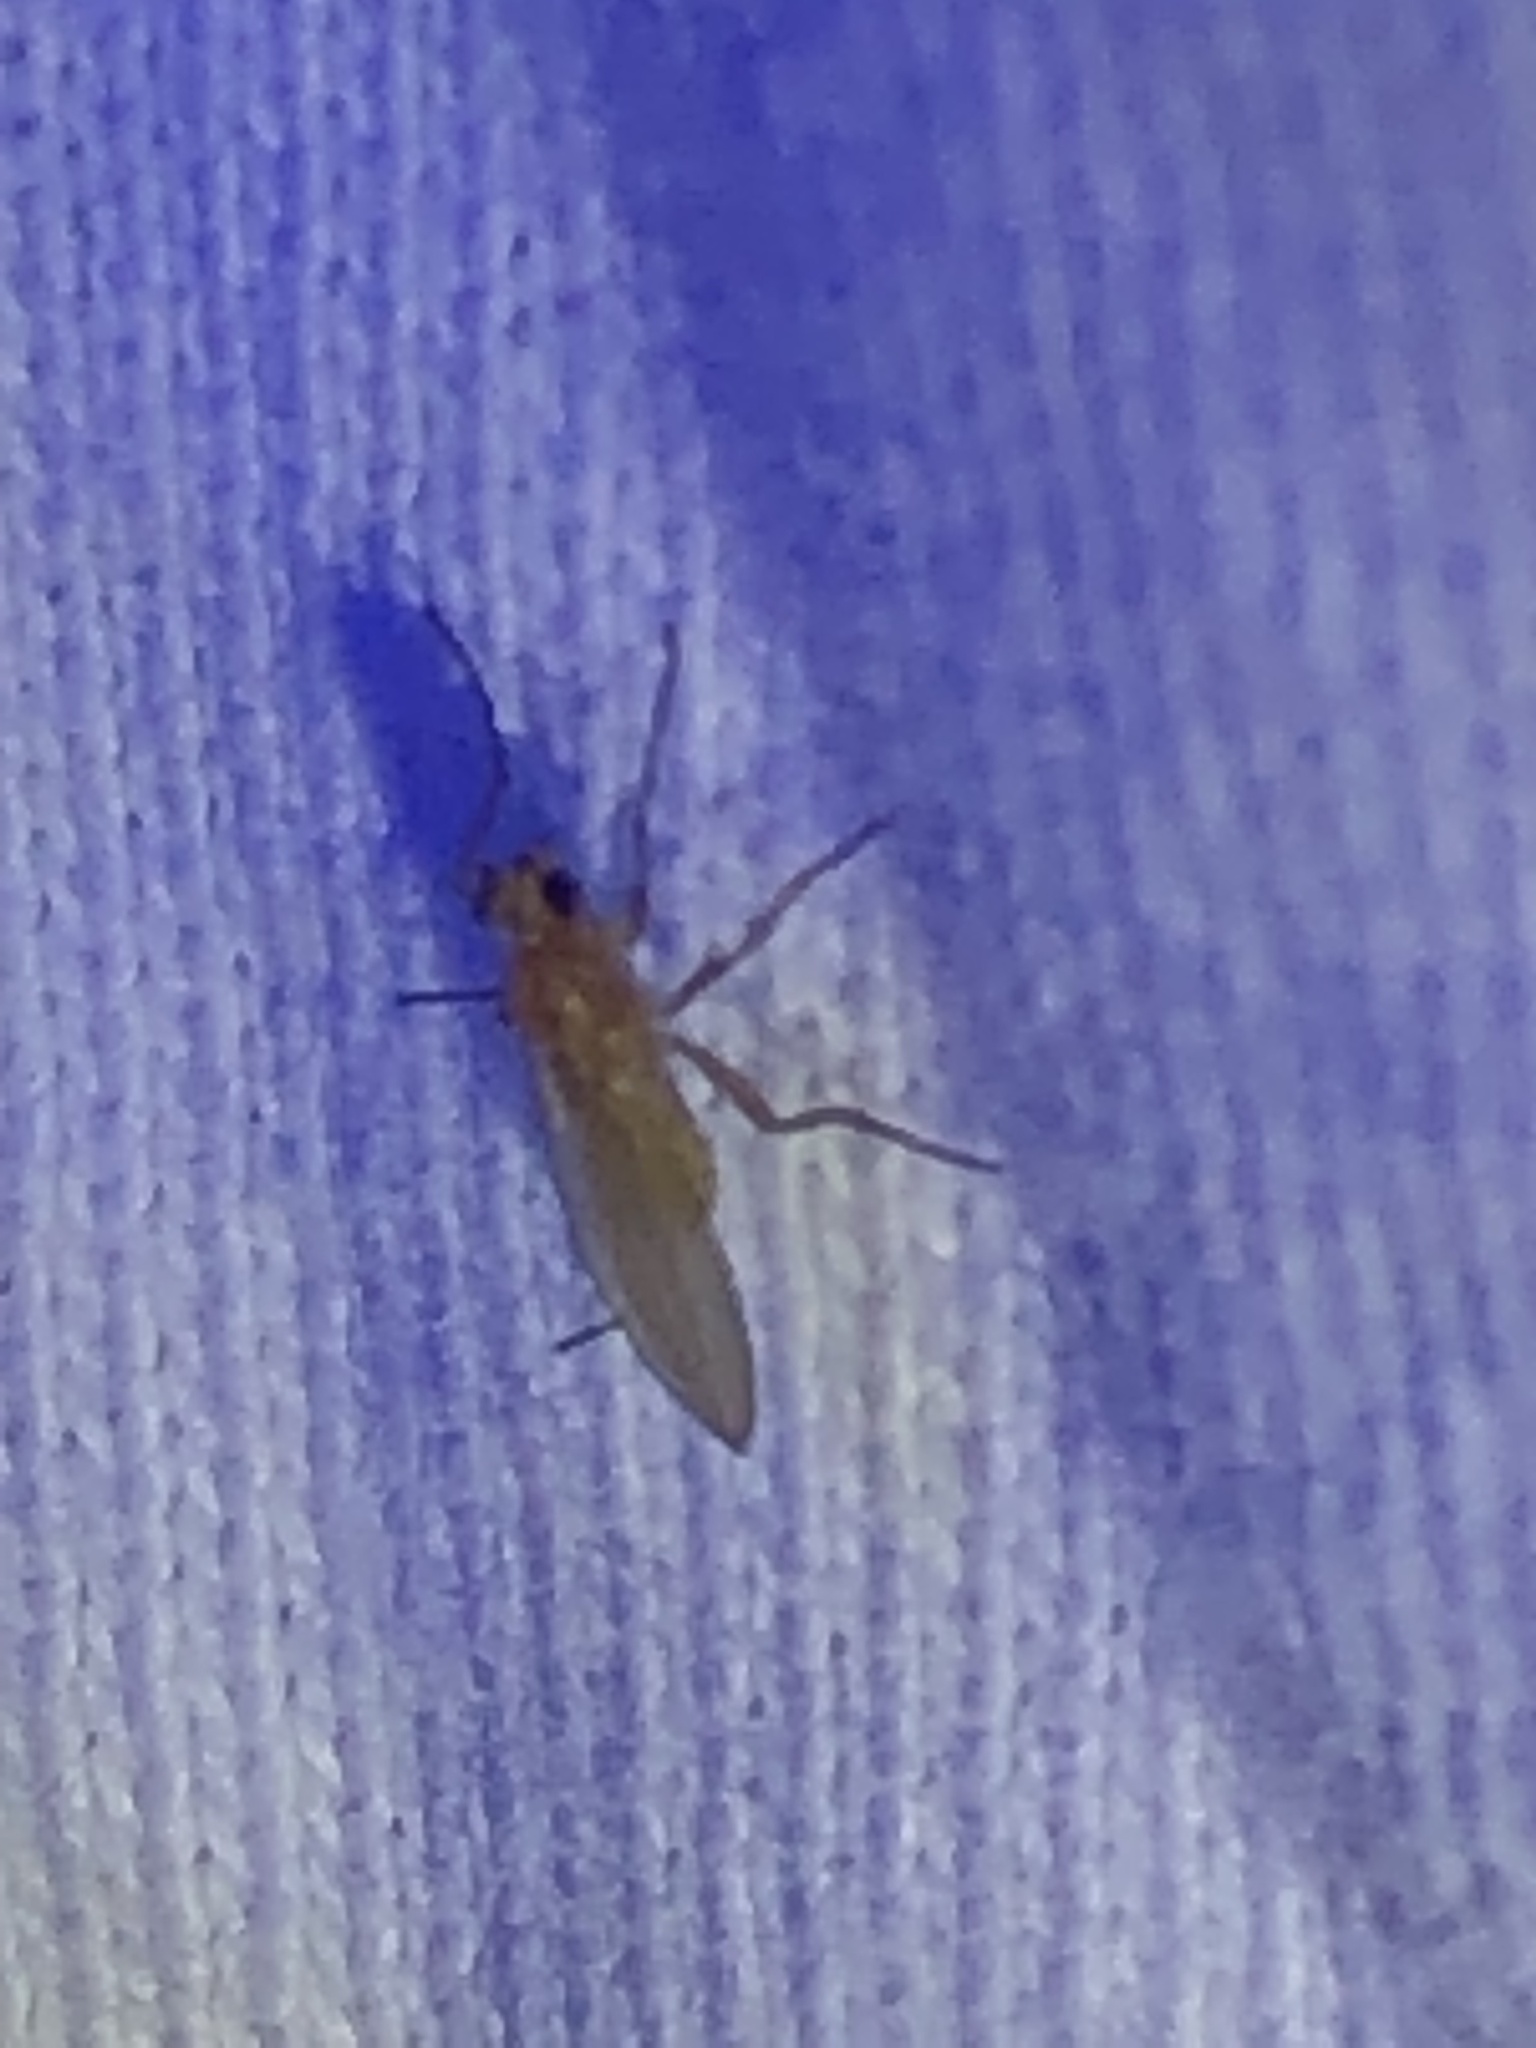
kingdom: Animalia
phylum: Arthropoda
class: Insecta
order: Diptera
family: Lonchopteridae
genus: Lonchoptera
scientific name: Lonchoptera bifurcata
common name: Spear-winged fly
